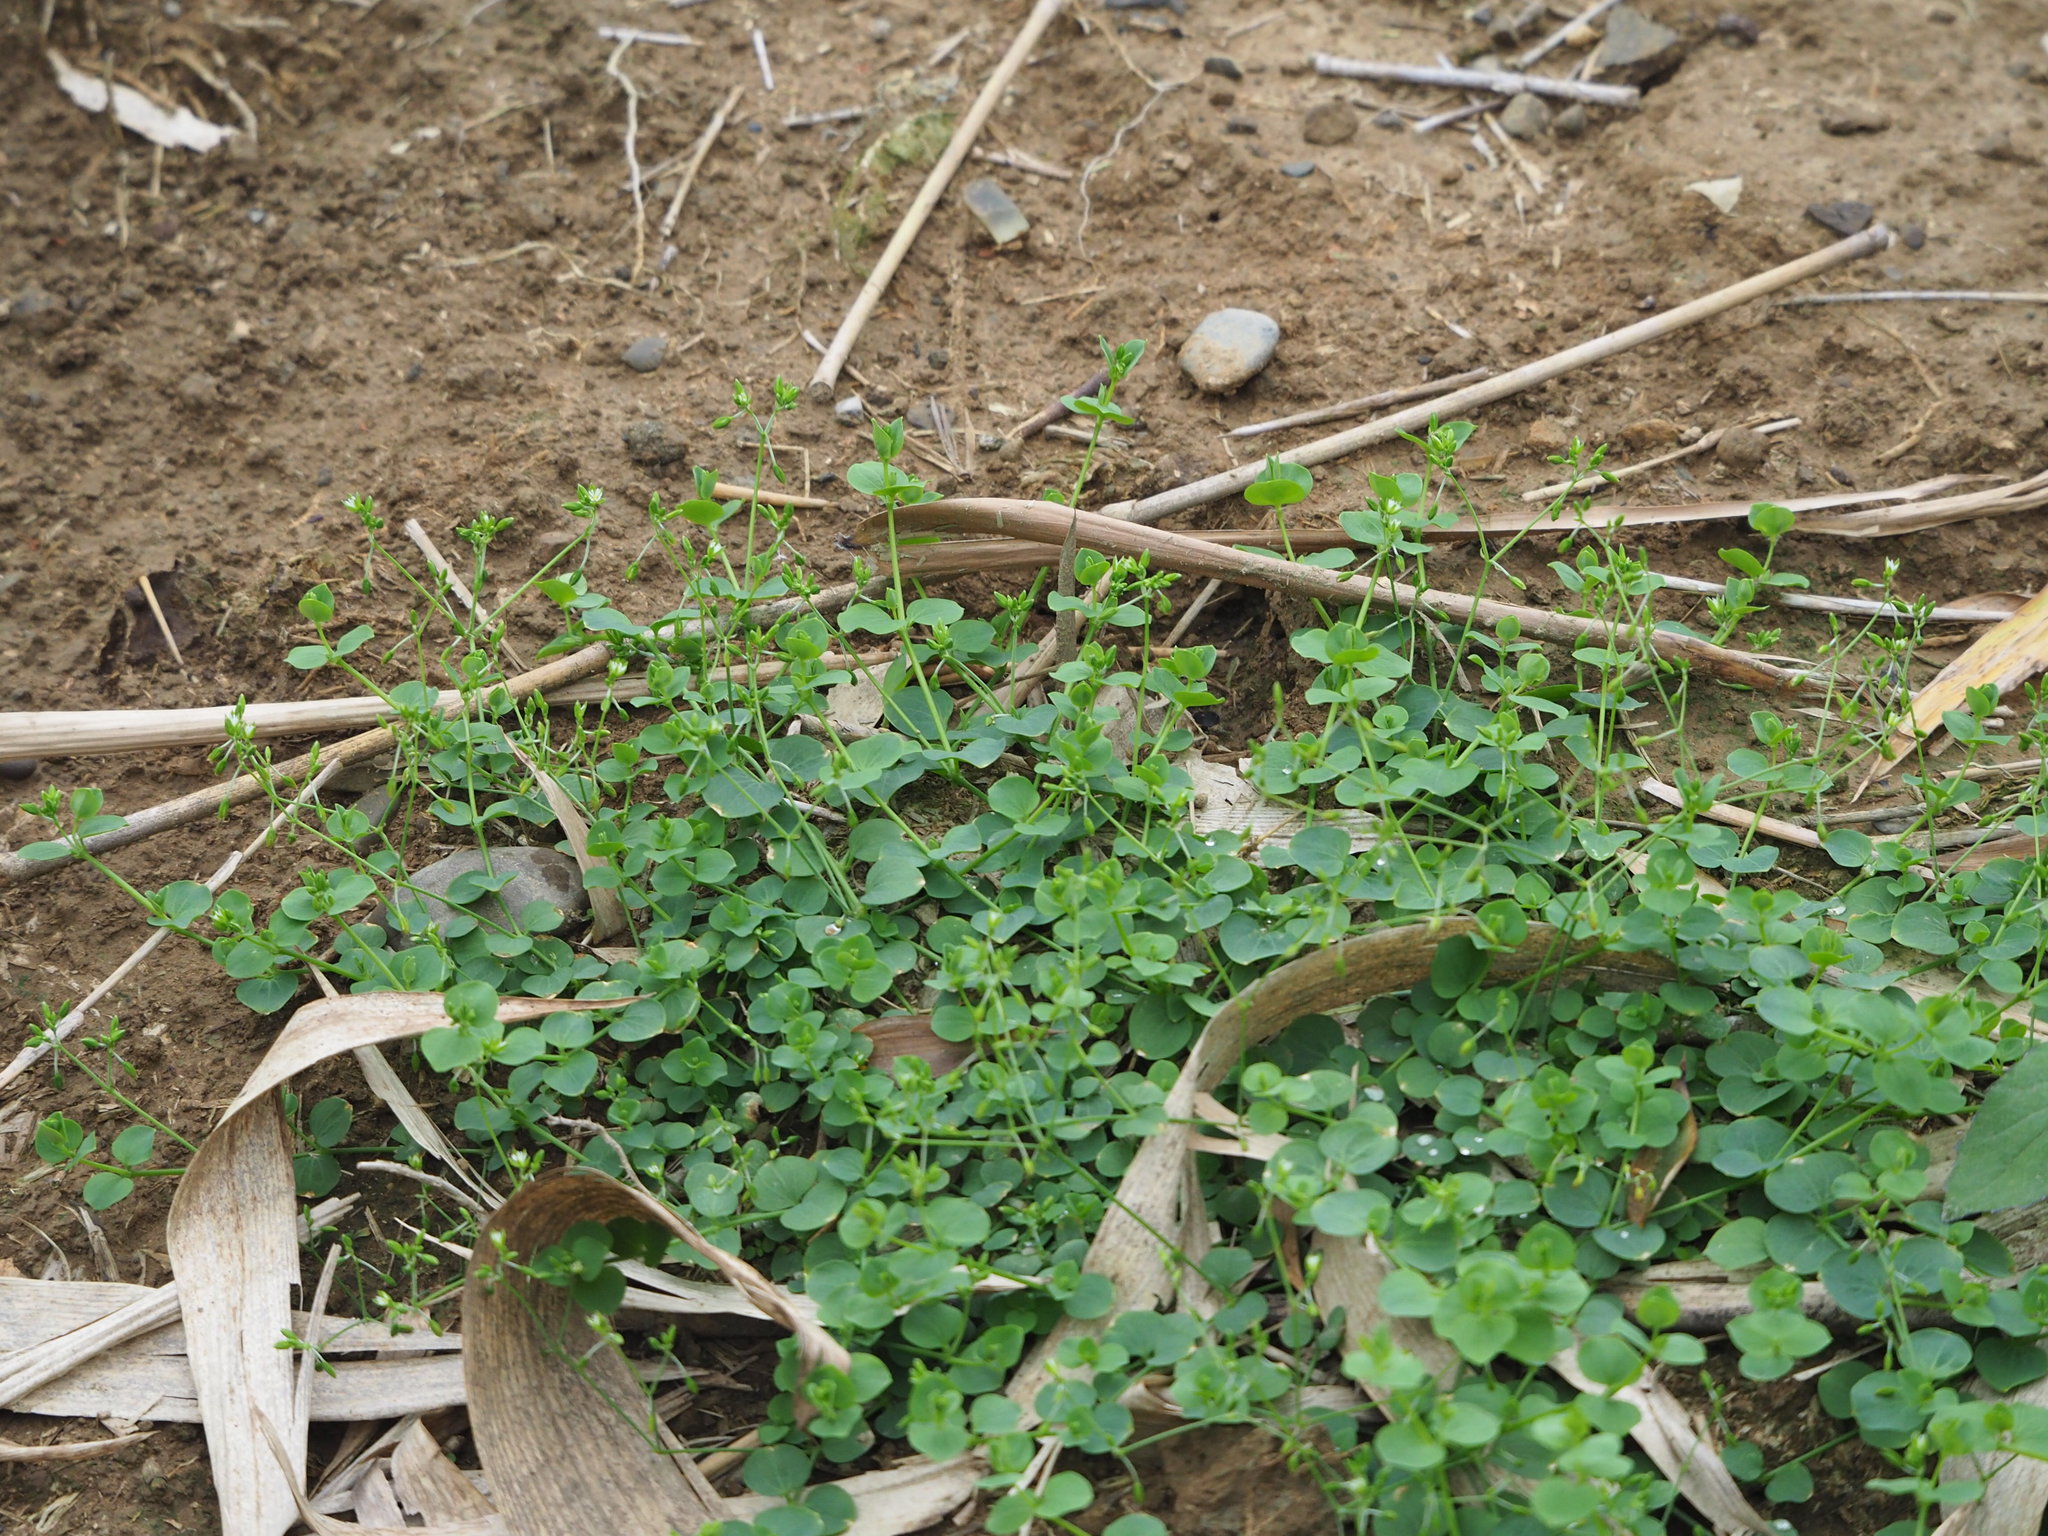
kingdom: Plantae
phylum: Tracheophyta
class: Magnoliopsida
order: Caryophyllales
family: Caryophyllaceae
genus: Drymaria
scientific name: Drymaria cordata
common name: Whitesnow
